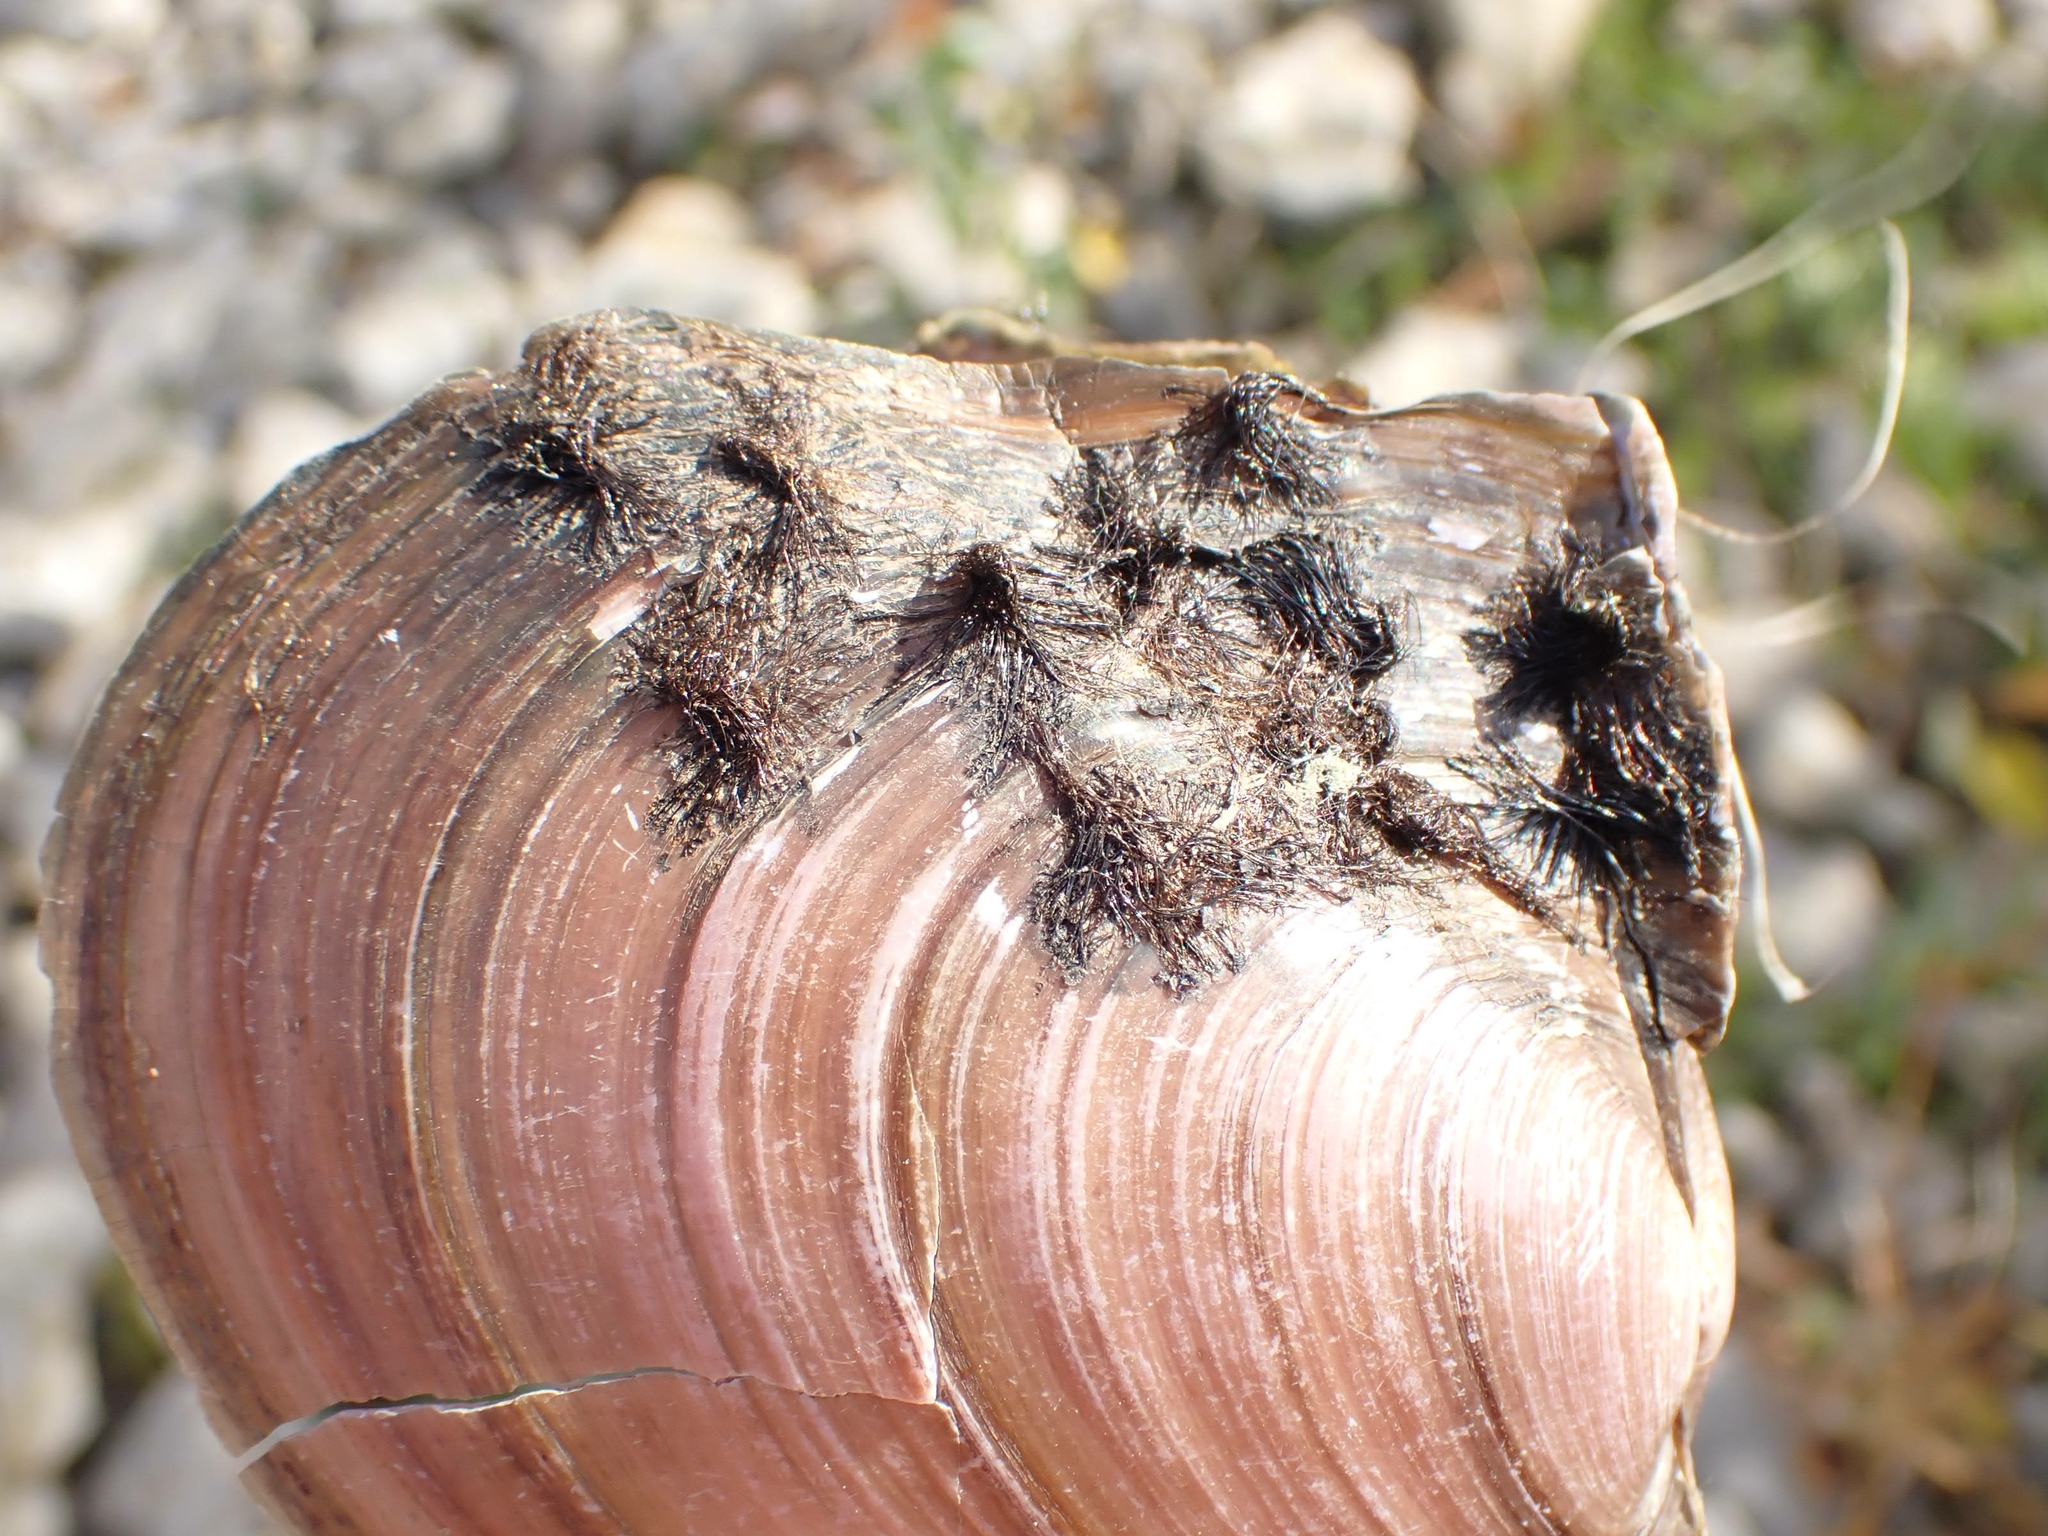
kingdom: Animalia
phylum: Mollusca
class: Bivalvia
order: Myida
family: Dreissenidae
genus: Dreissena
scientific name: Dreissena polymorpha
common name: Zebra mussel
